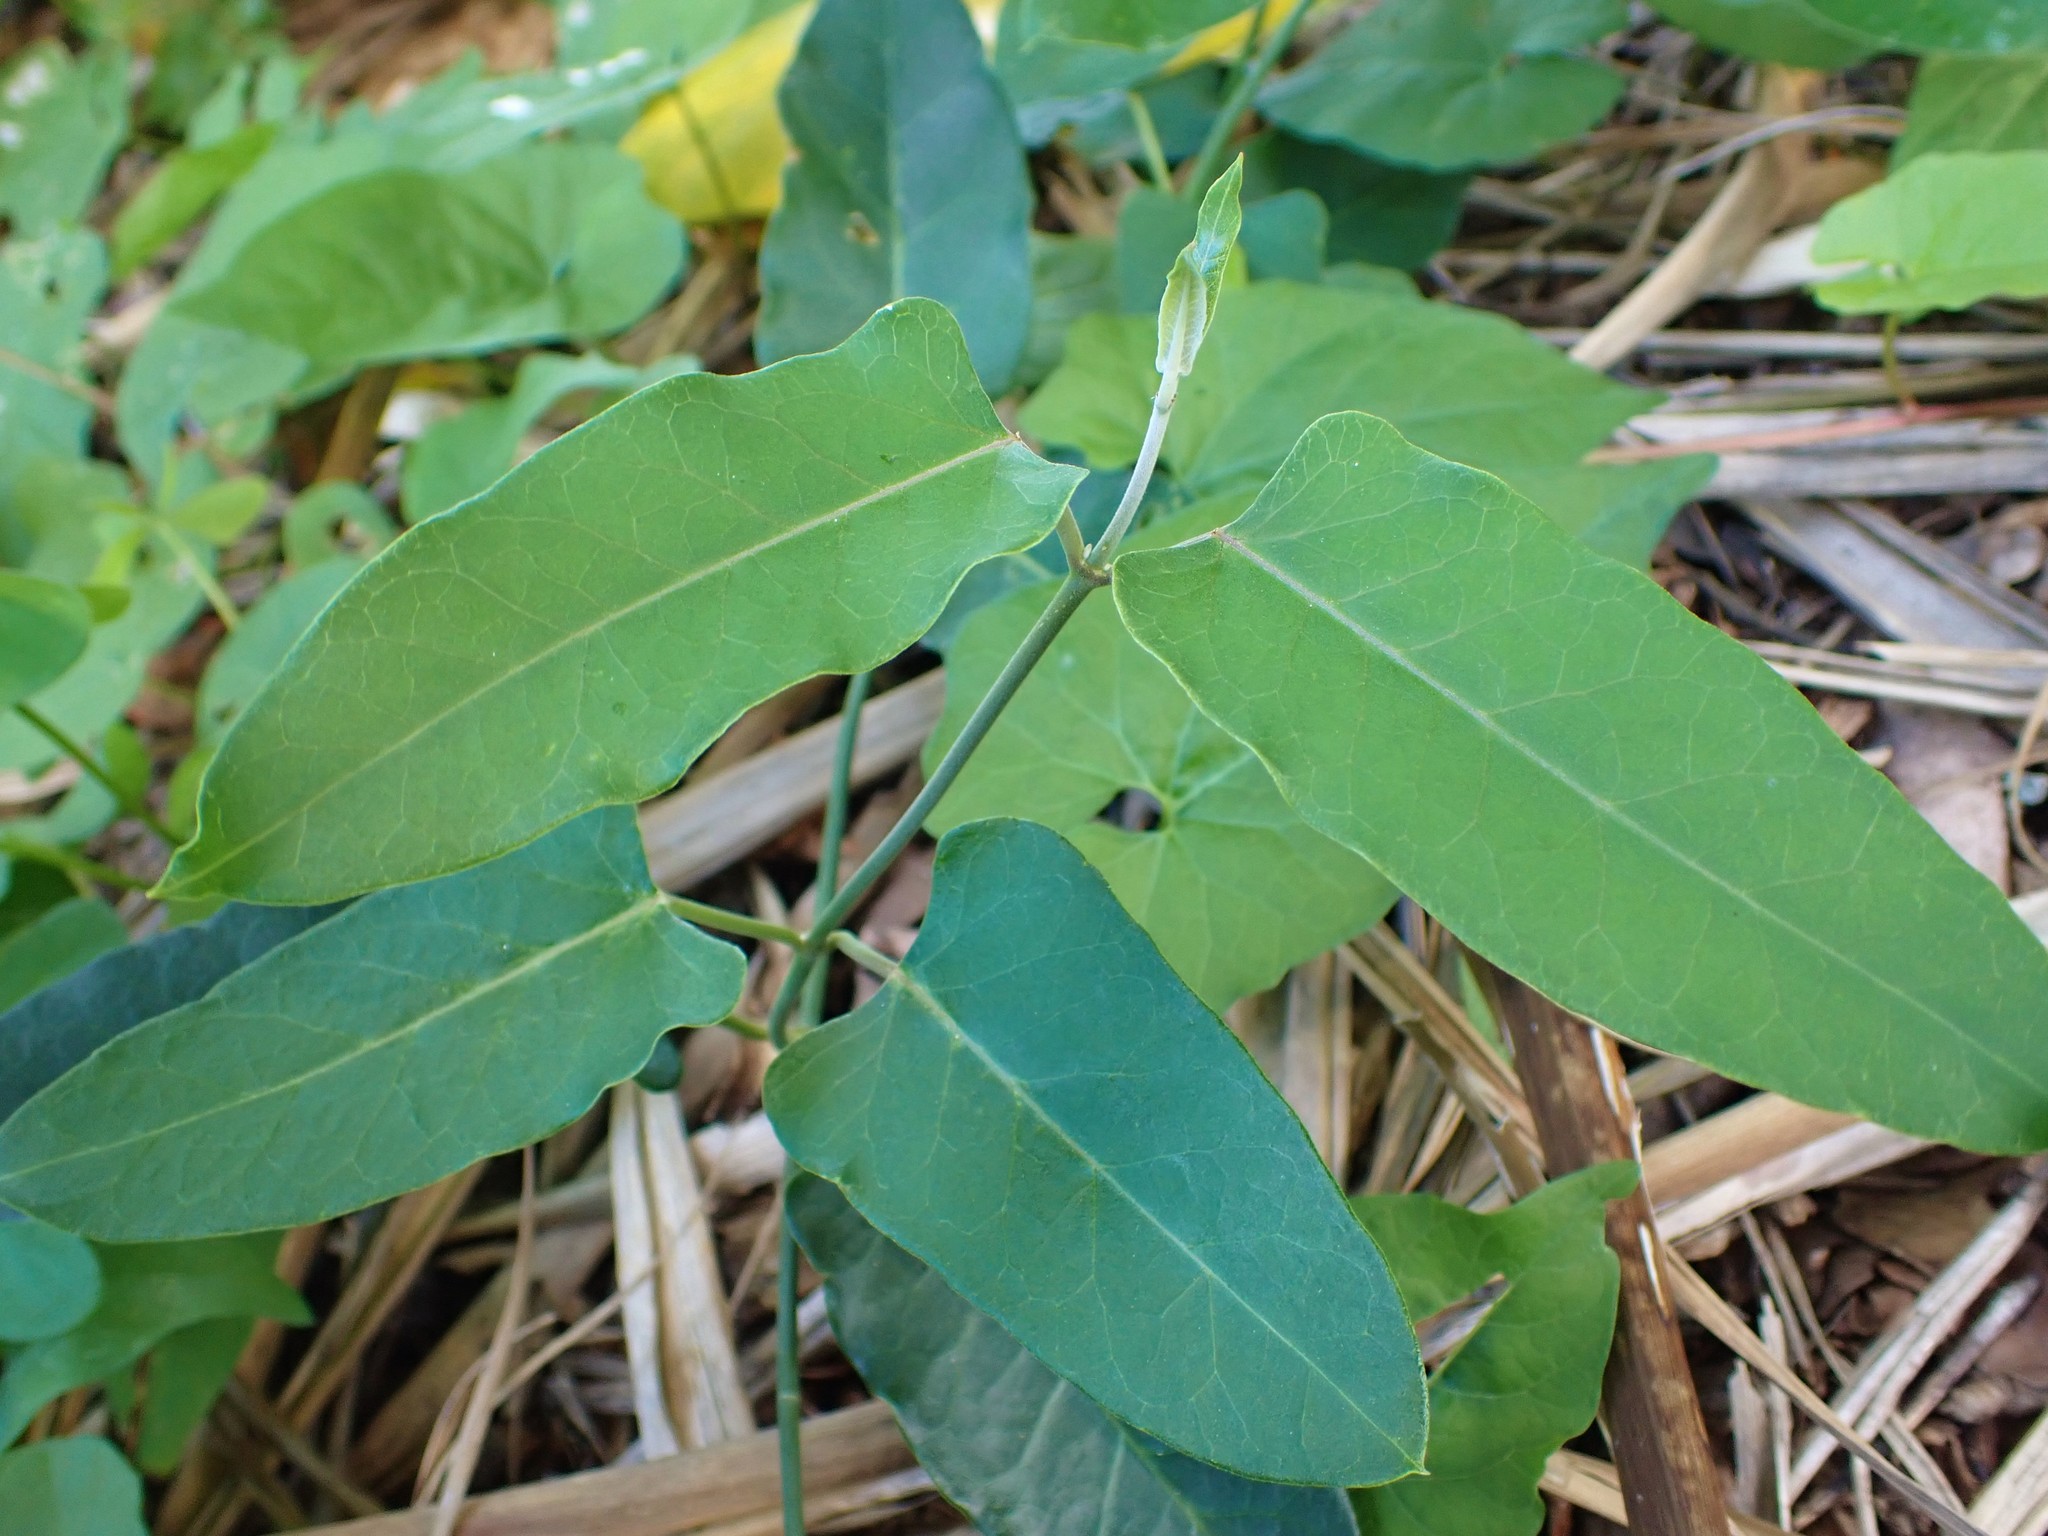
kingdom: Plantae
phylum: Tracheophyta
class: Magnoliopsida
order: Gentianales
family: Apocynaceae
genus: Araujia
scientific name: Araujia sericifera
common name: White bladderflower
